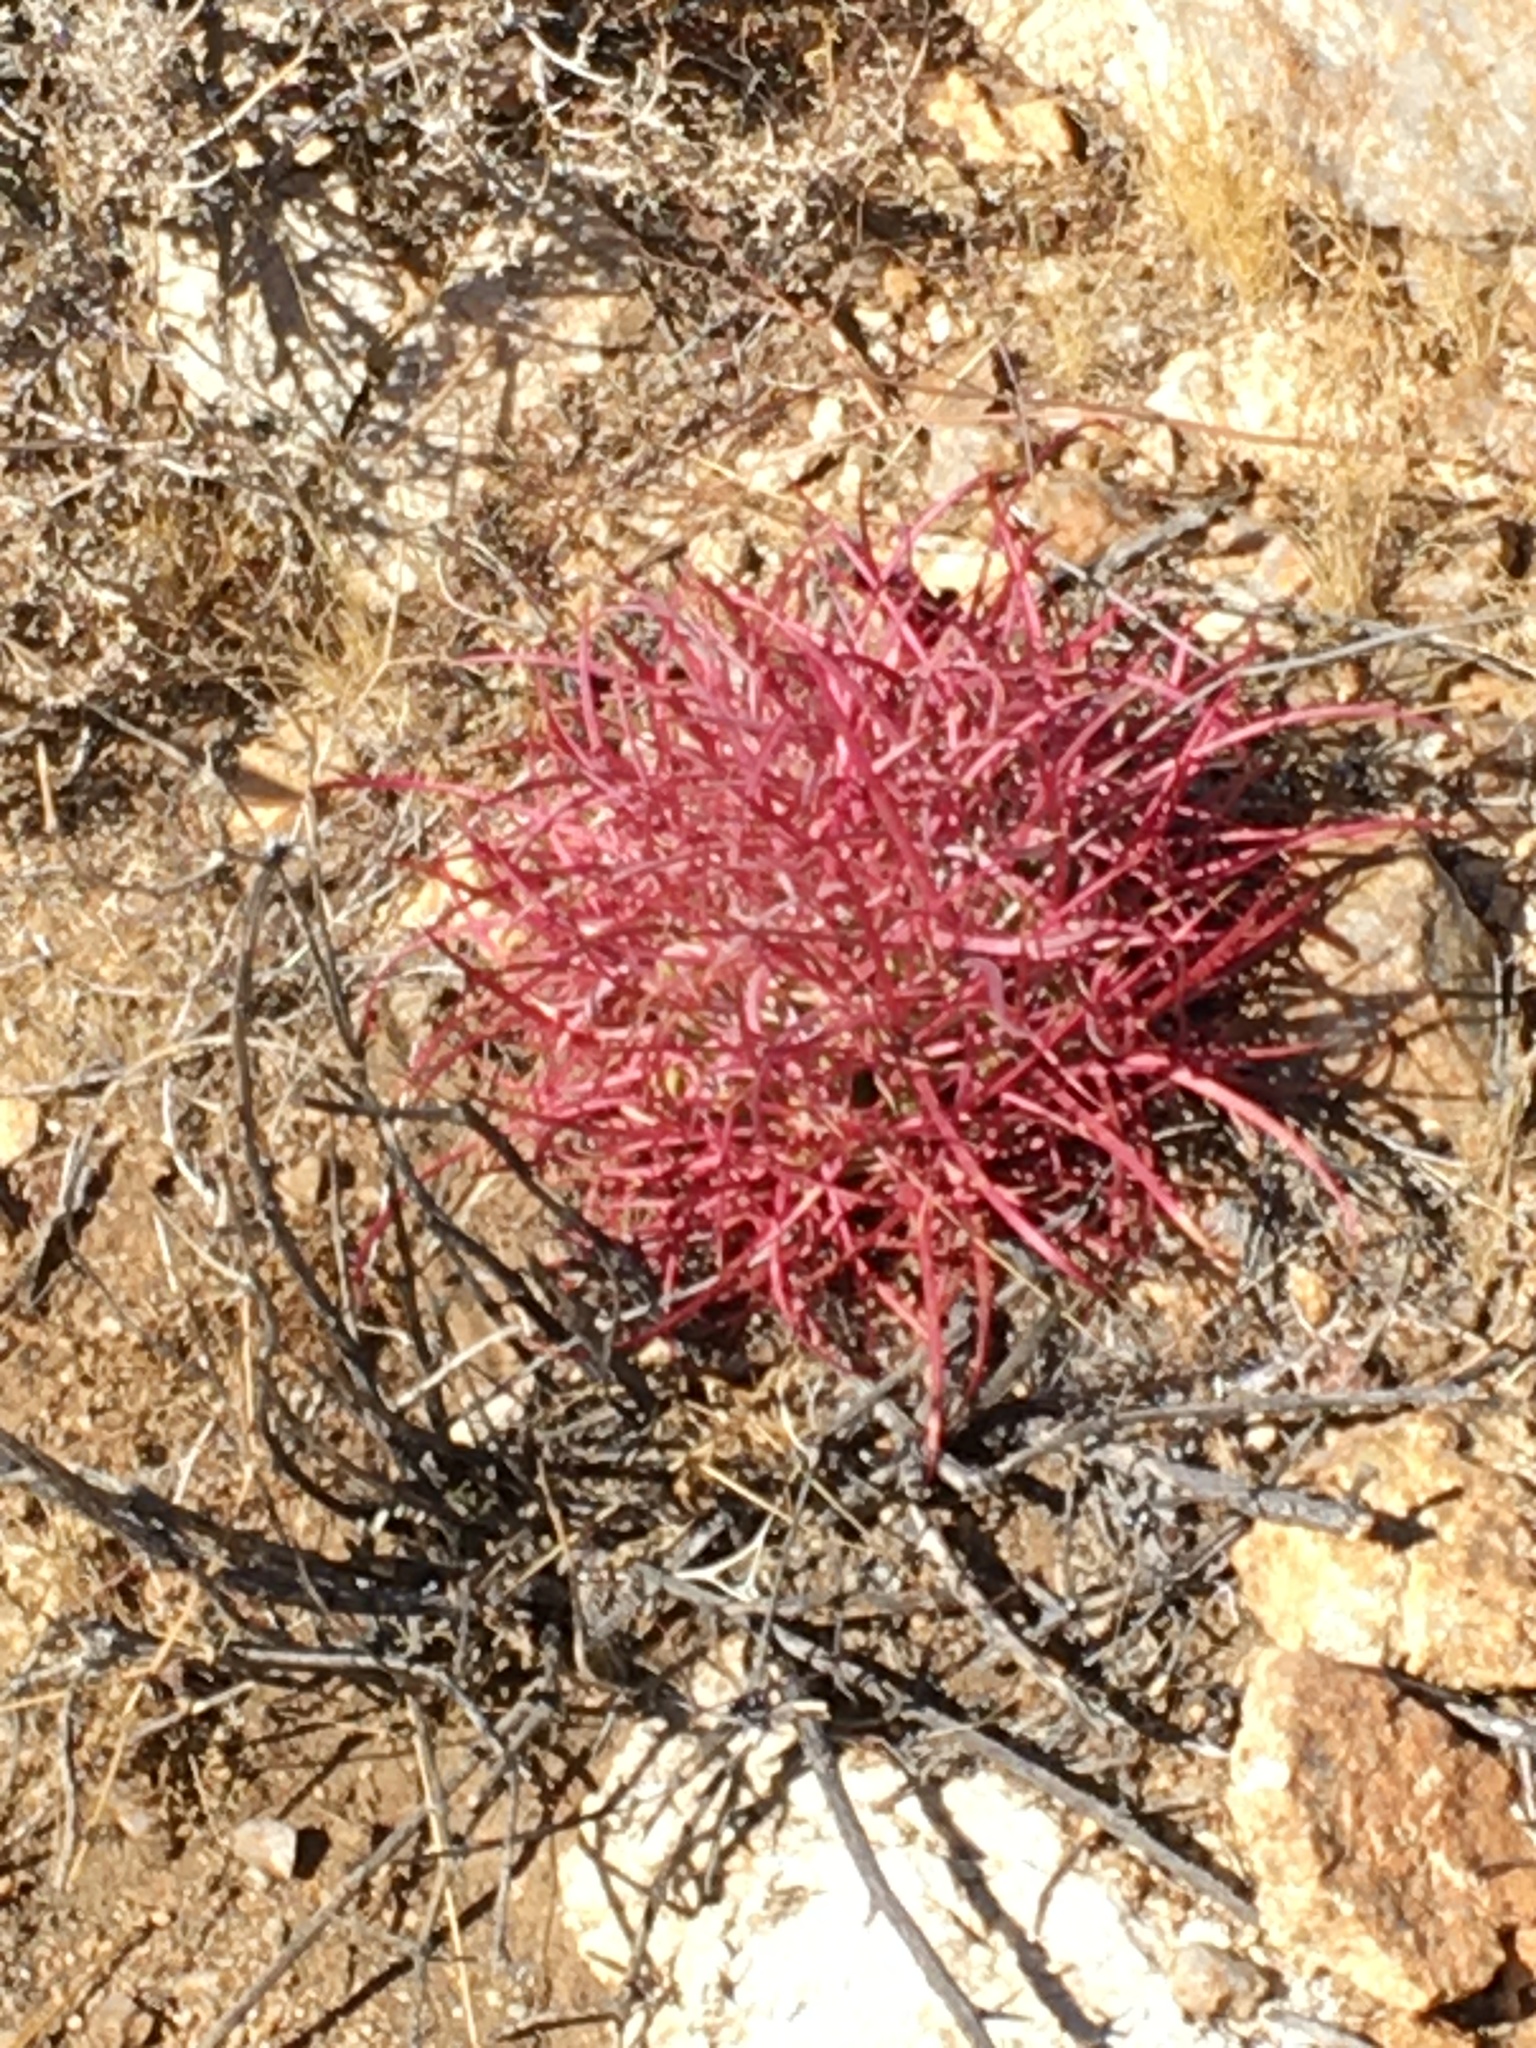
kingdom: Plantae
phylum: Tracheophyta
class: Magnoliopsida
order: Caryophyllales
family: Cactaceae
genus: Ferocactus
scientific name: Ferocactus cylindraceus
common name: California barrel cactus
